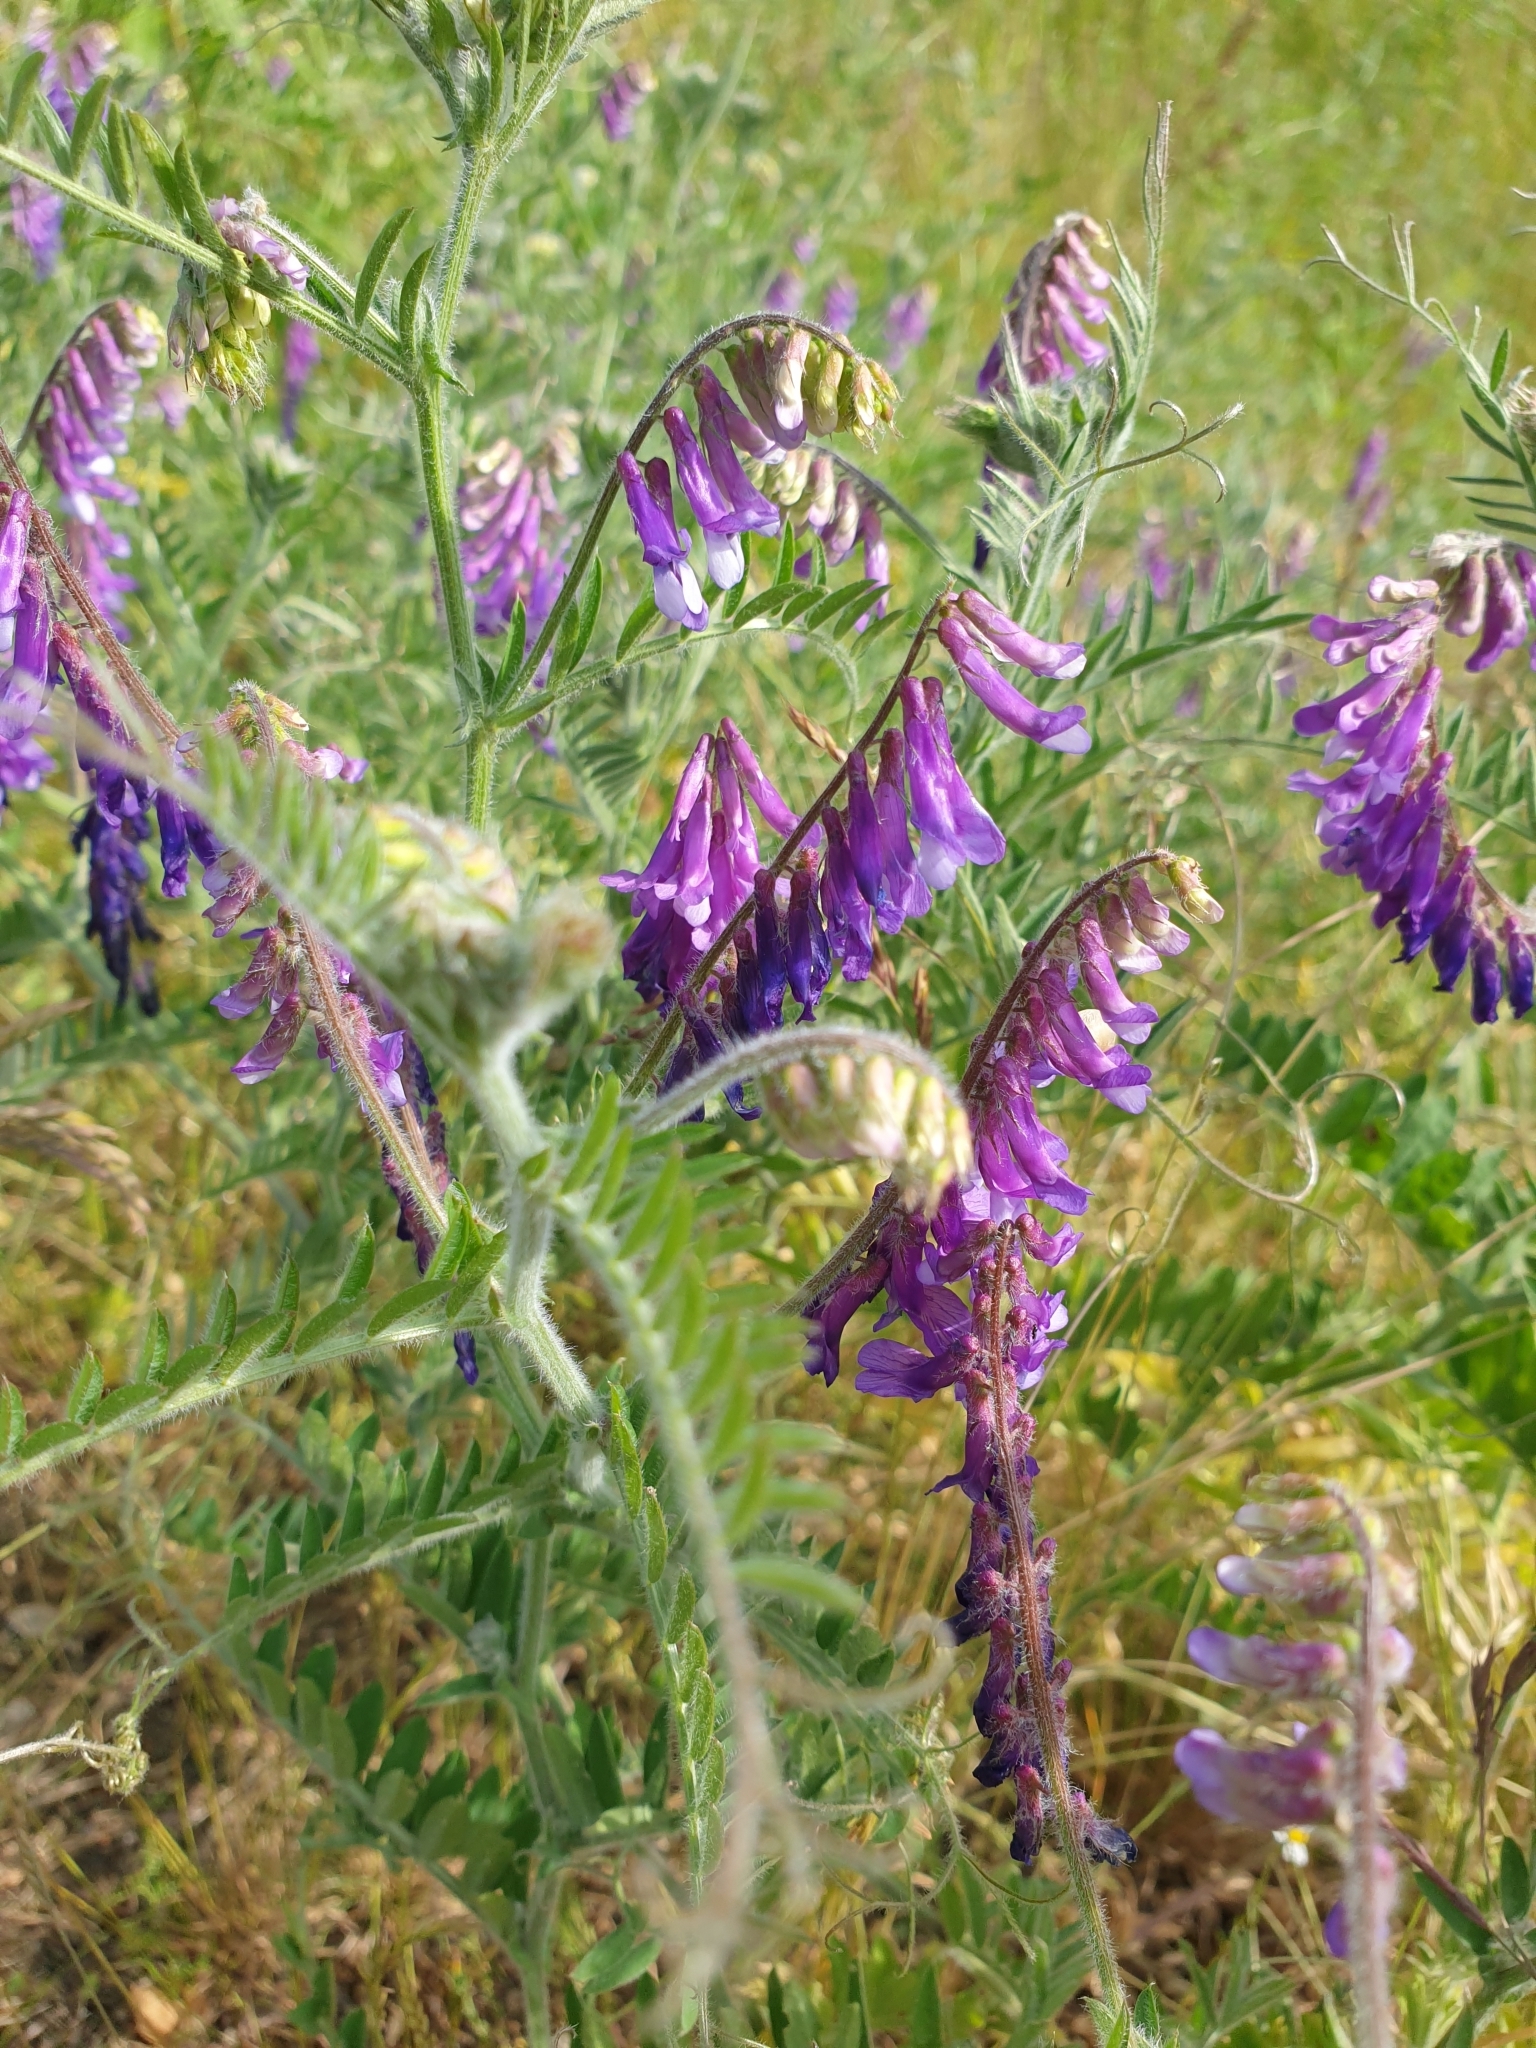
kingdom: Plantae
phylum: Tracheophyta
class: Magnoliopsida
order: Fabales
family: Fabaceae
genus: Vicia
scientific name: Vicia villosa
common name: Fodder vetch
